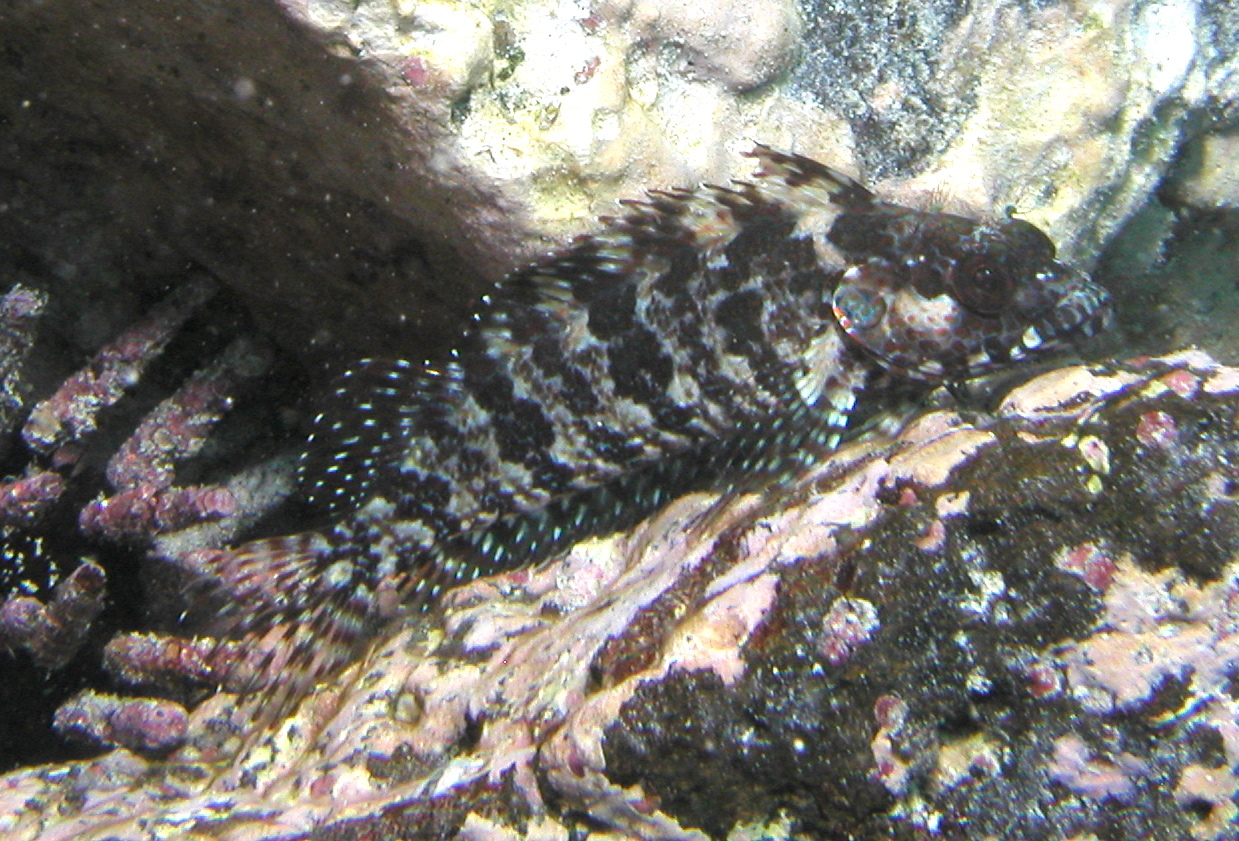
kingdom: Animalia
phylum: Chordata
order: Perciformes
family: Labrisomidae
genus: Gobioclinus
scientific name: Gobioclinus dendriticus
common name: Bravo clinid
